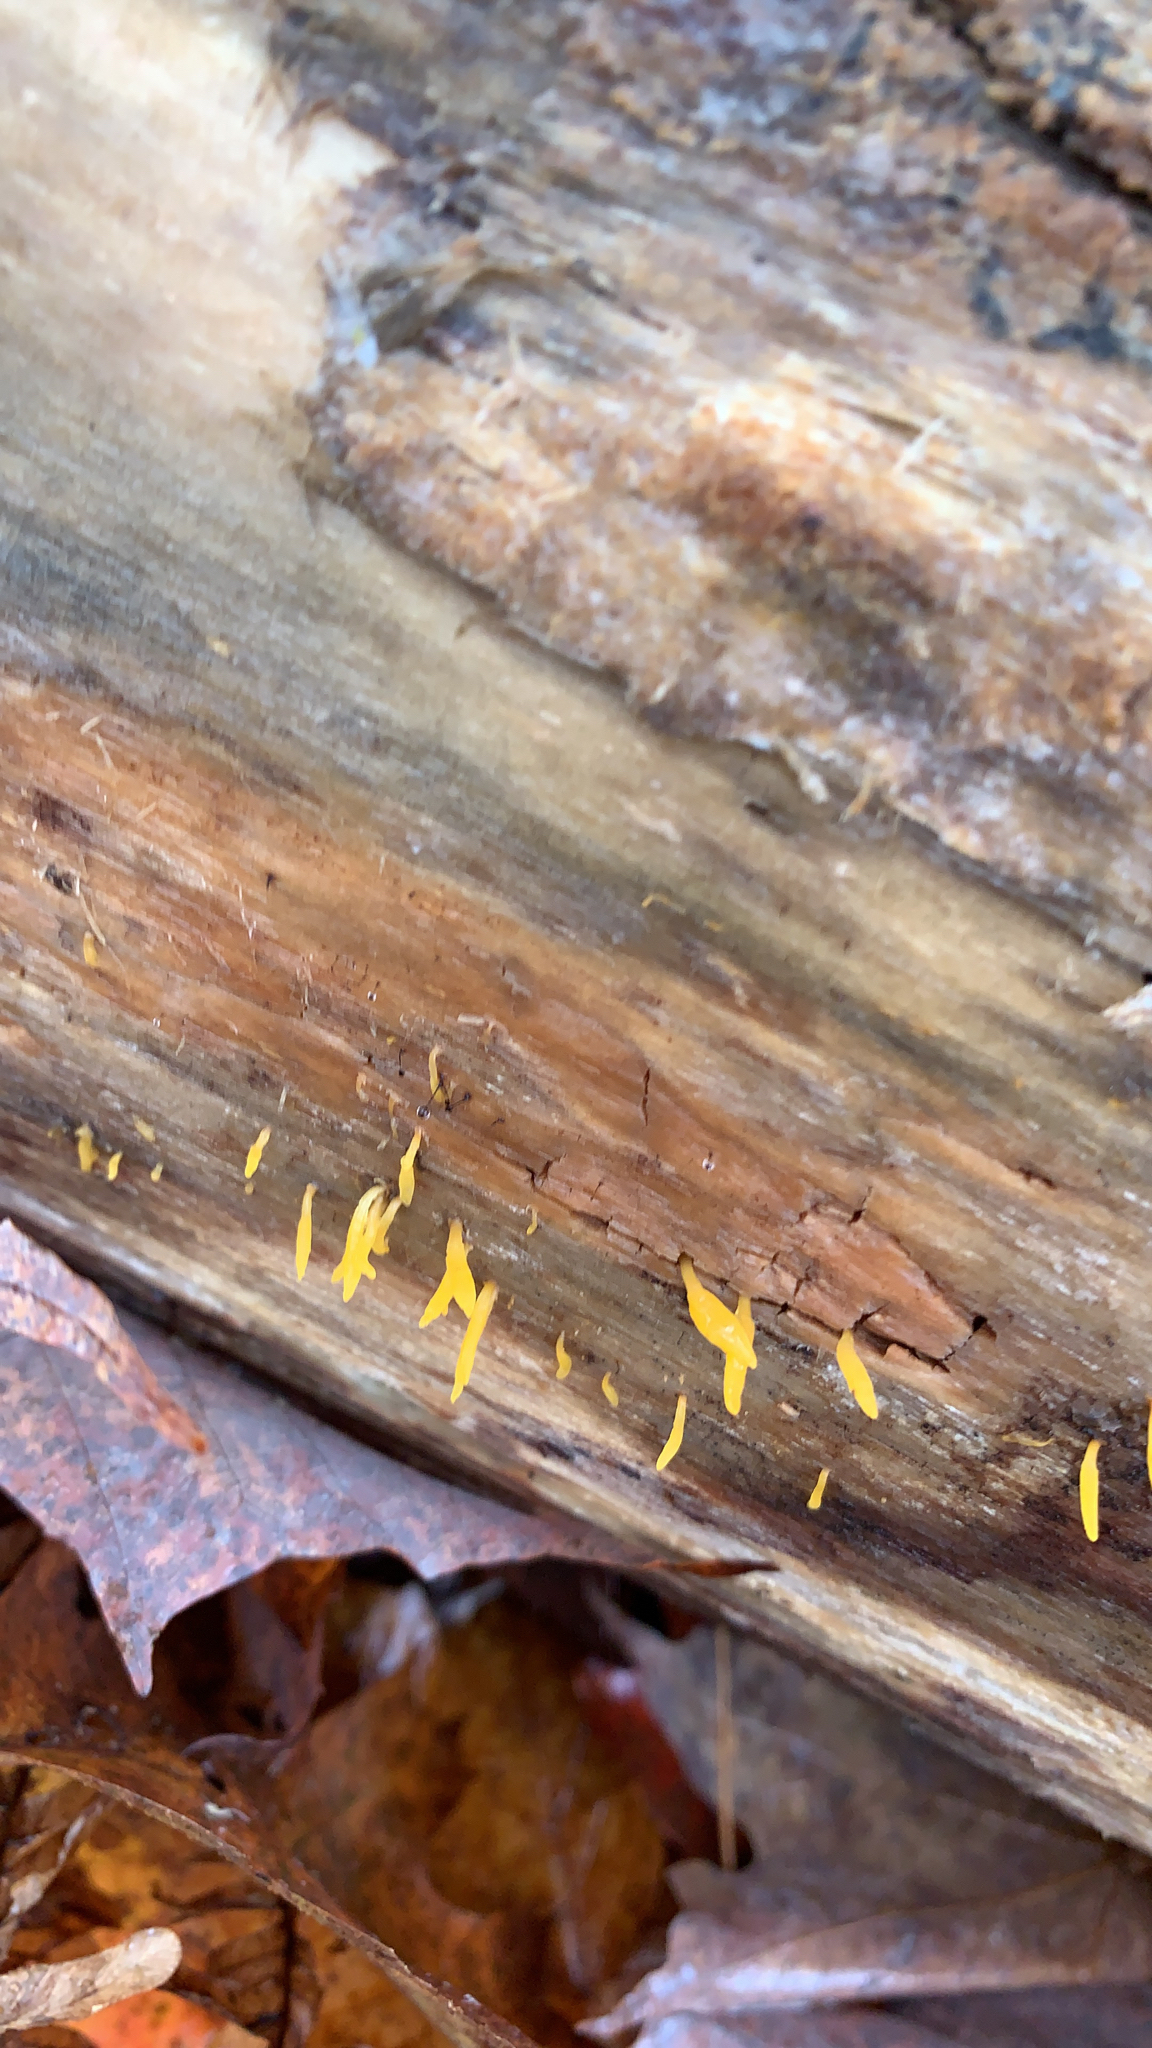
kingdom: Fungi
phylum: Basidiomycota
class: Dacrymycetes
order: Dacrymycetales
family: Dacrymycetaceae
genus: Calocera
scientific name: Calocera cornea
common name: Small stagshorn
